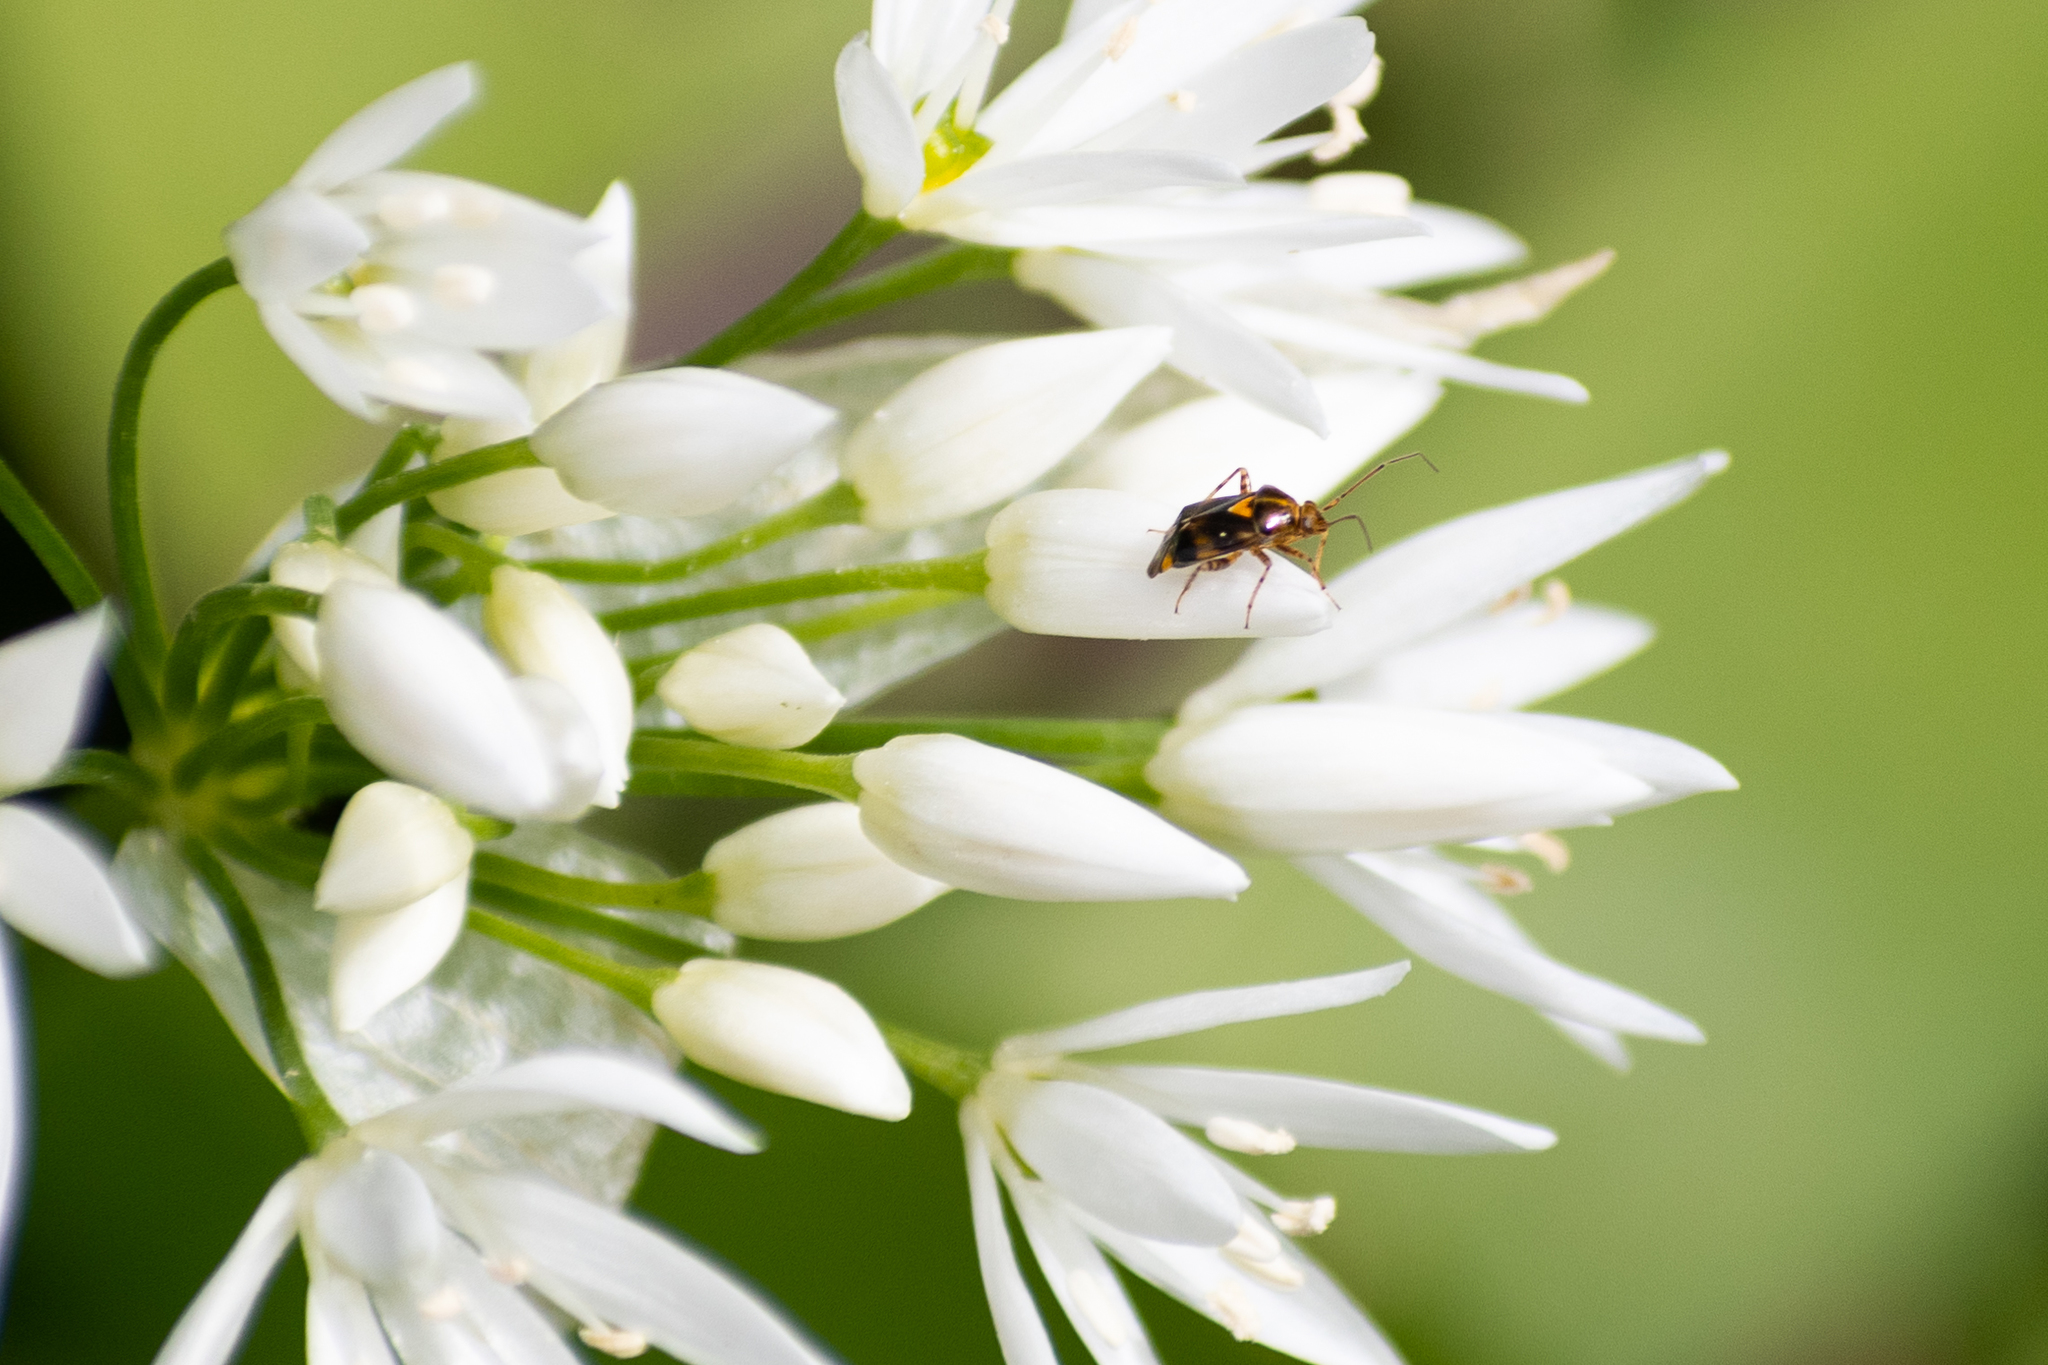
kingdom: Animalia
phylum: Arthropoda
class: Insecta
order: Hemiptera
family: Miridae
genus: Liocoris
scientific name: Liocoris tripustulatus
